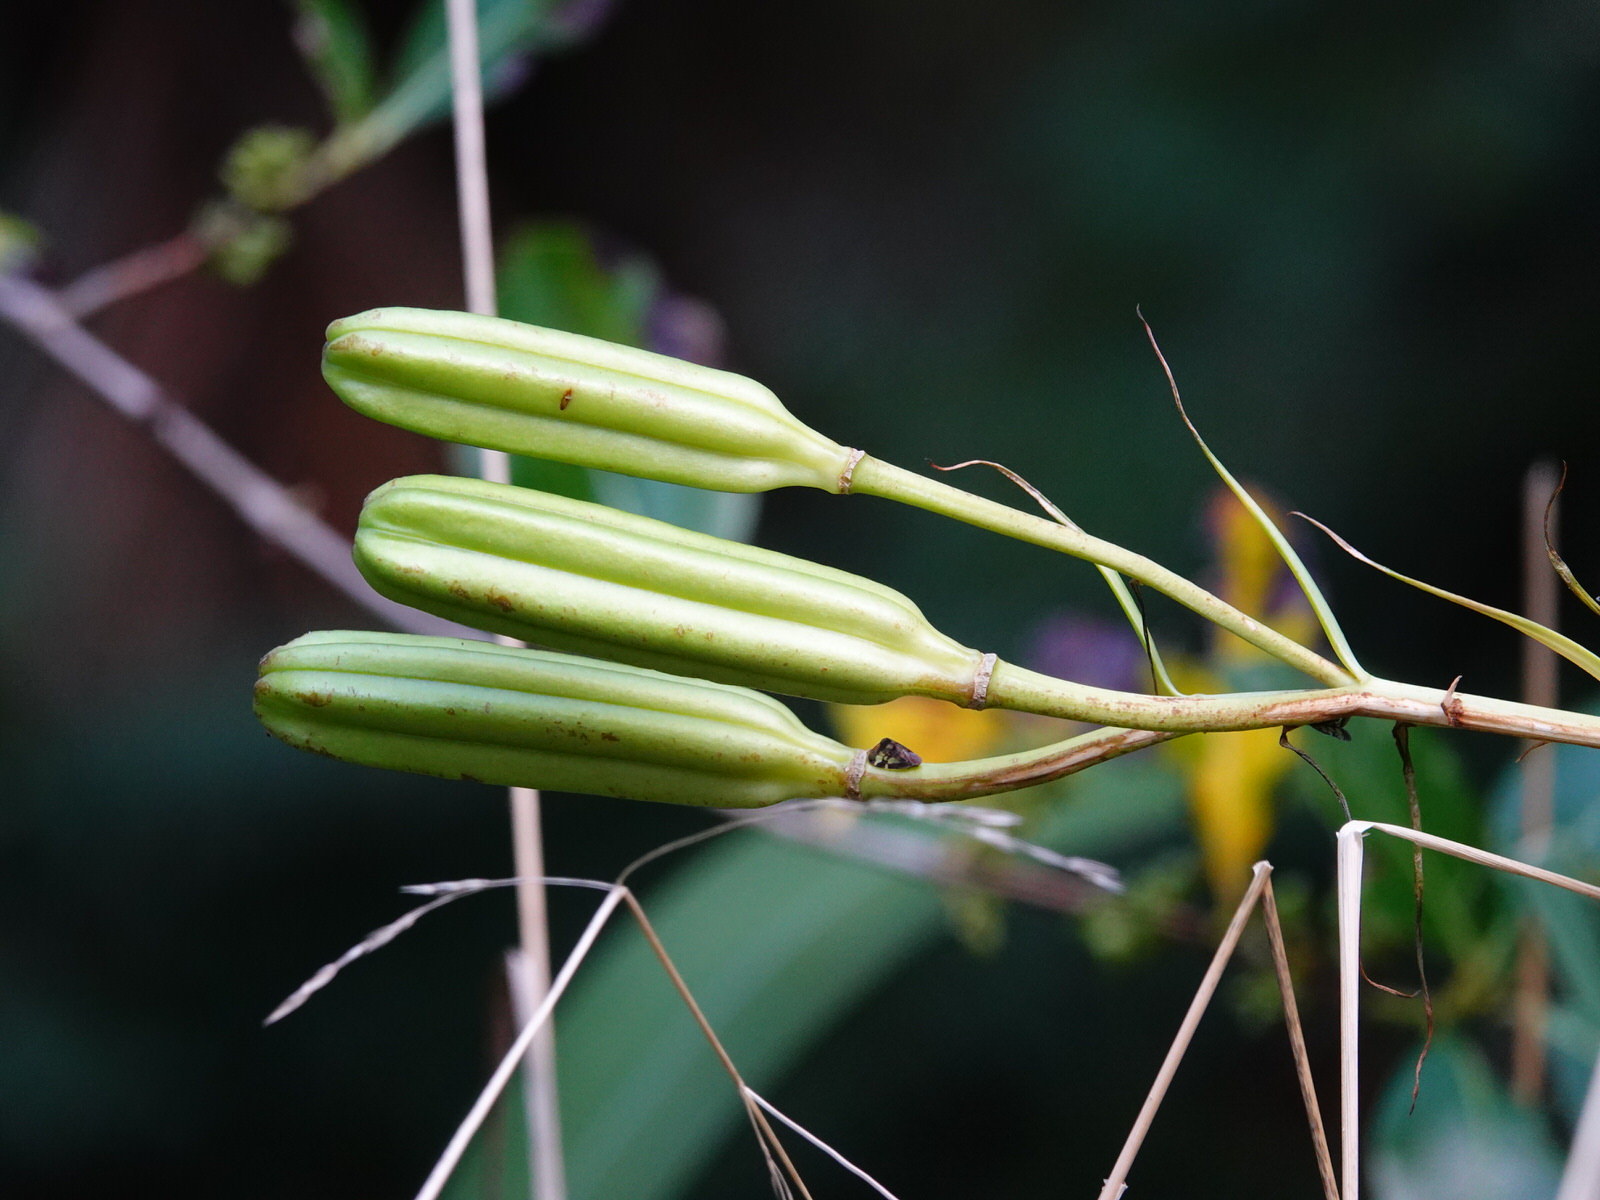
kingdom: Plantae
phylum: Tracheophyta
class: Liliopsida
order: Liliales
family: Liliaceae
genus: Lilium
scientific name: Lilium formosanum
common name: Formosa lily
